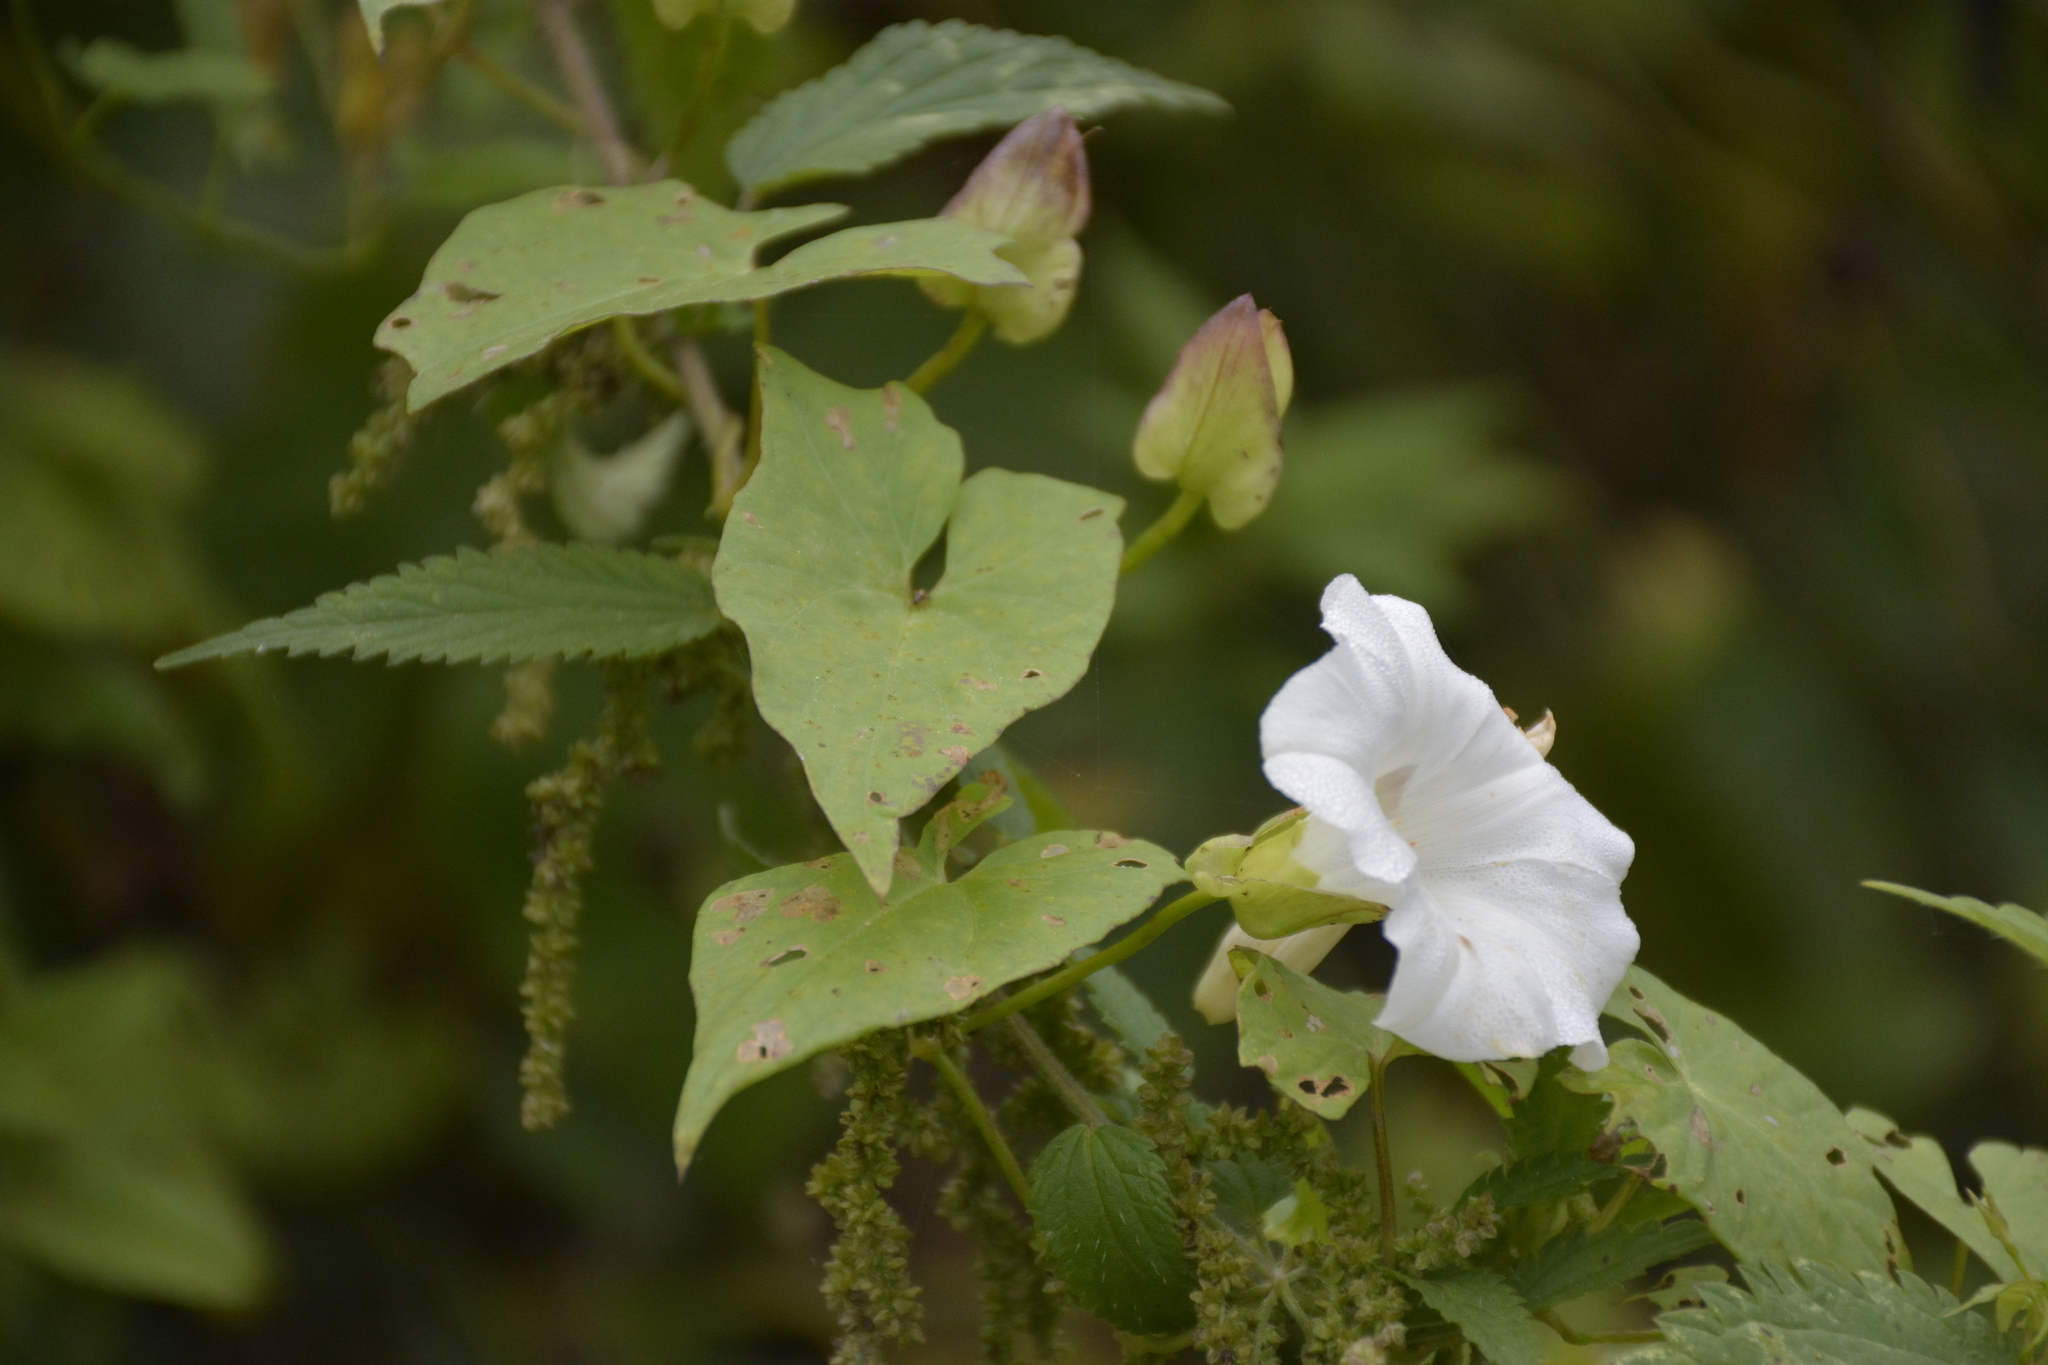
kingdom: Plantae
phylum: Tracheophyta
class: Magnoliopsida
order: Solanales
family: Convolvulaceae
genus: Calystegia
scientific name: Calystegia sepium
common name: Hedge bindweed
